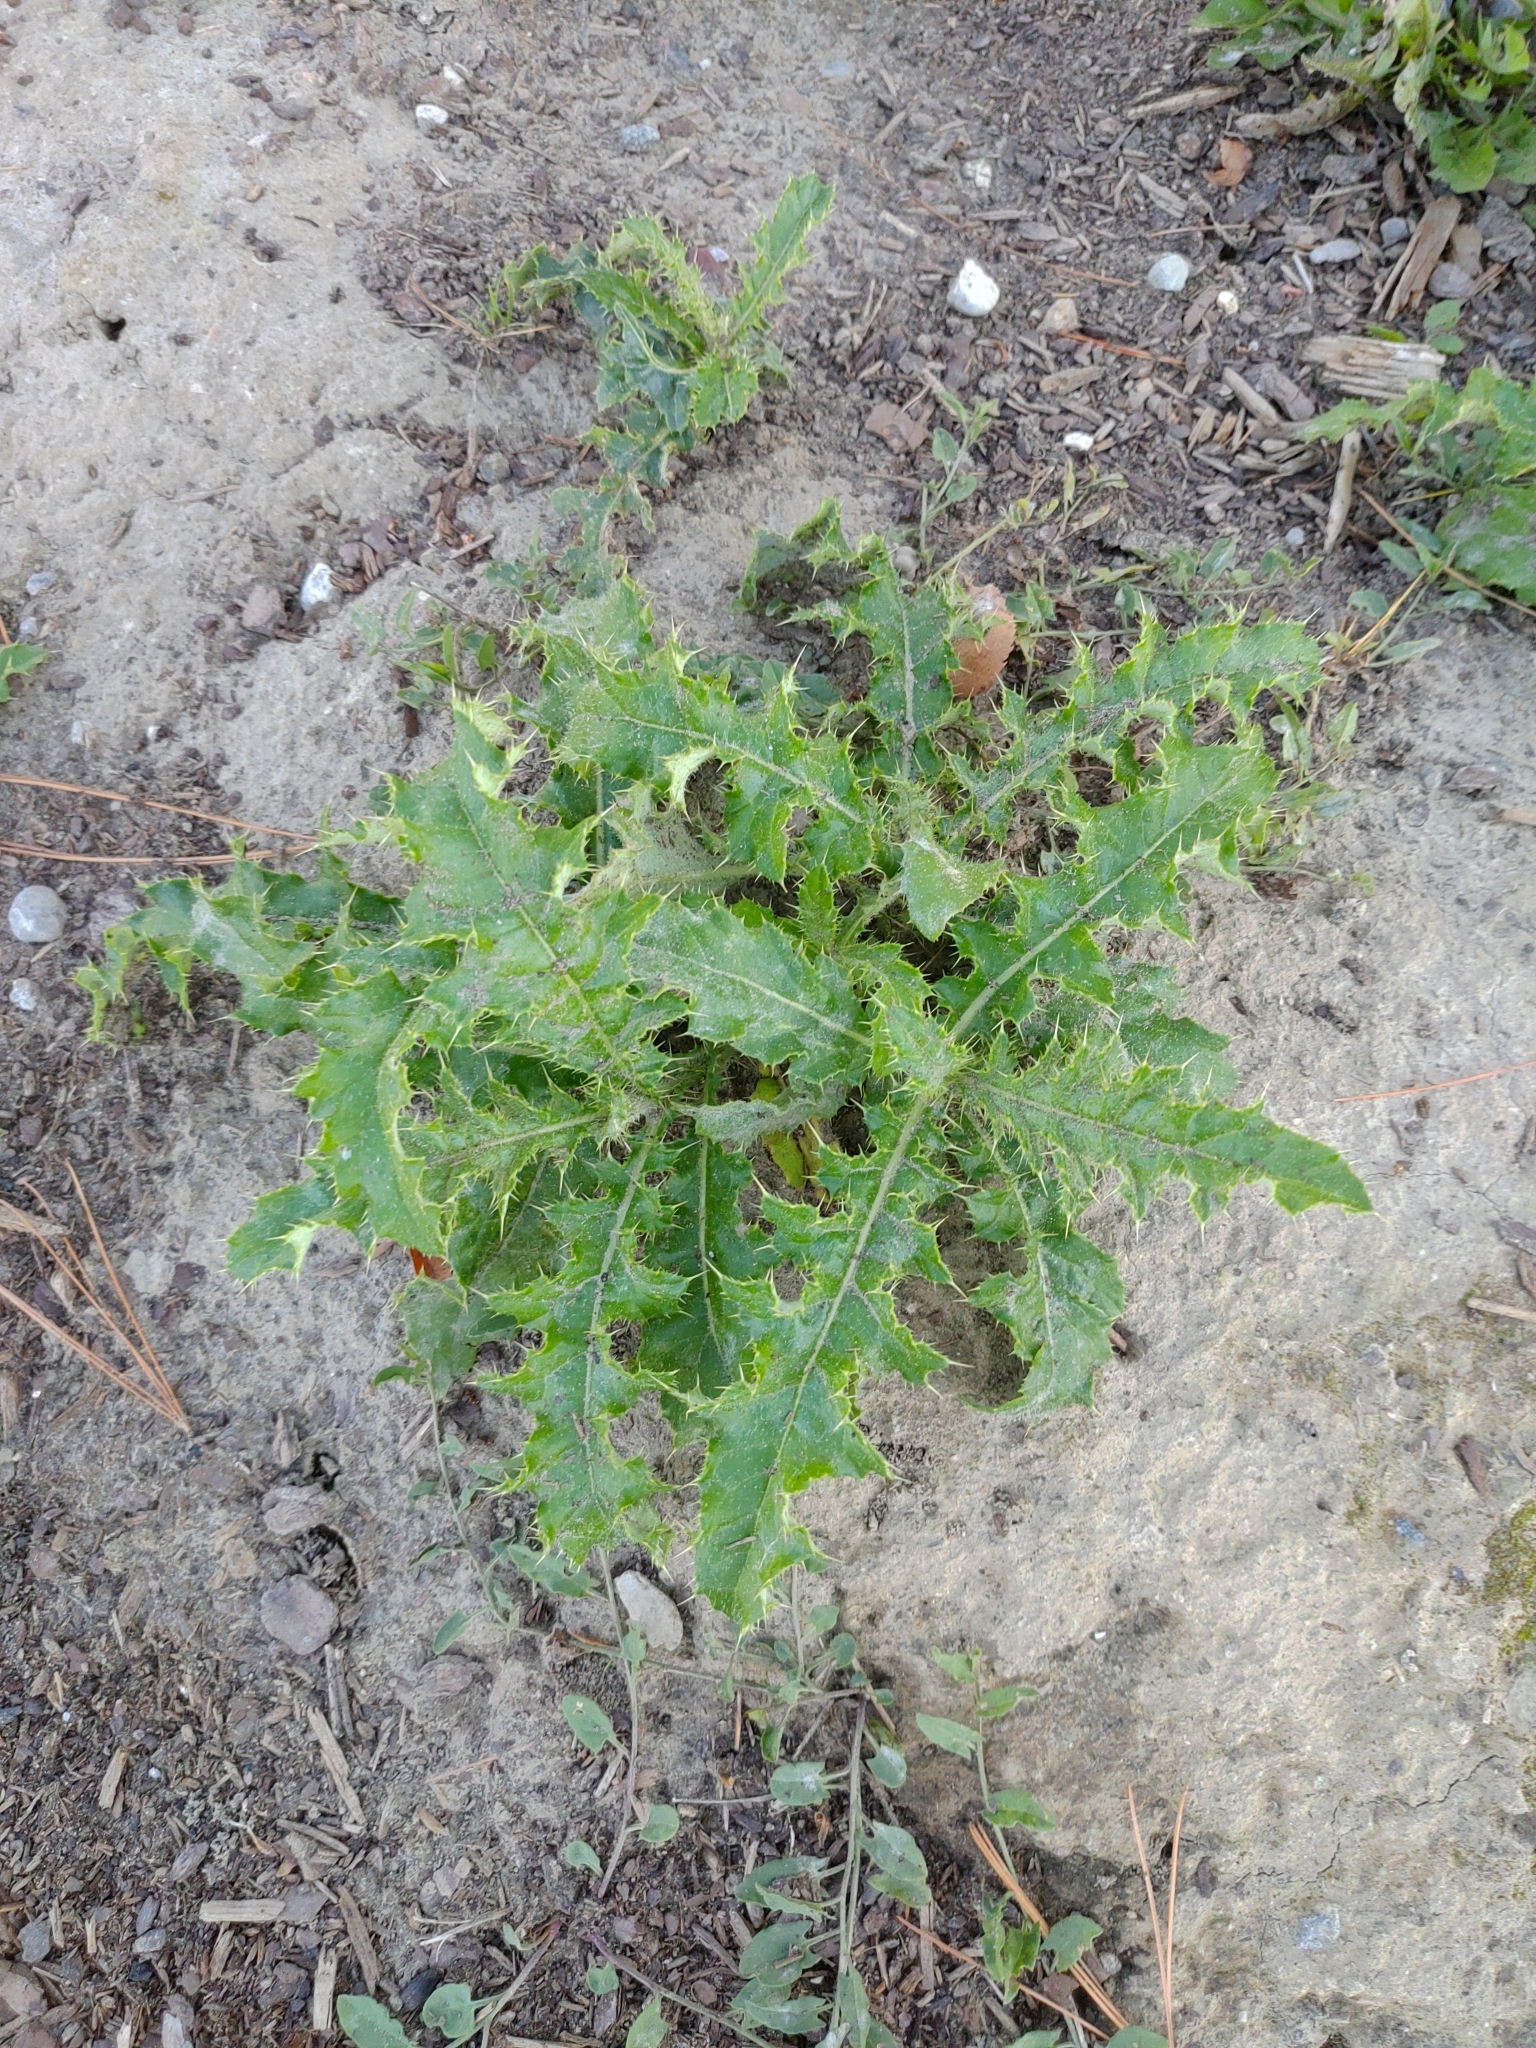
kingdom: Plantae
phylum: Tracheophyta
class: Magnoliopsida
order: Asterales
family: Asteraceae
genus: Sonchus
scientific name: Sonchus asper
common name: Prickly sow-thistle
